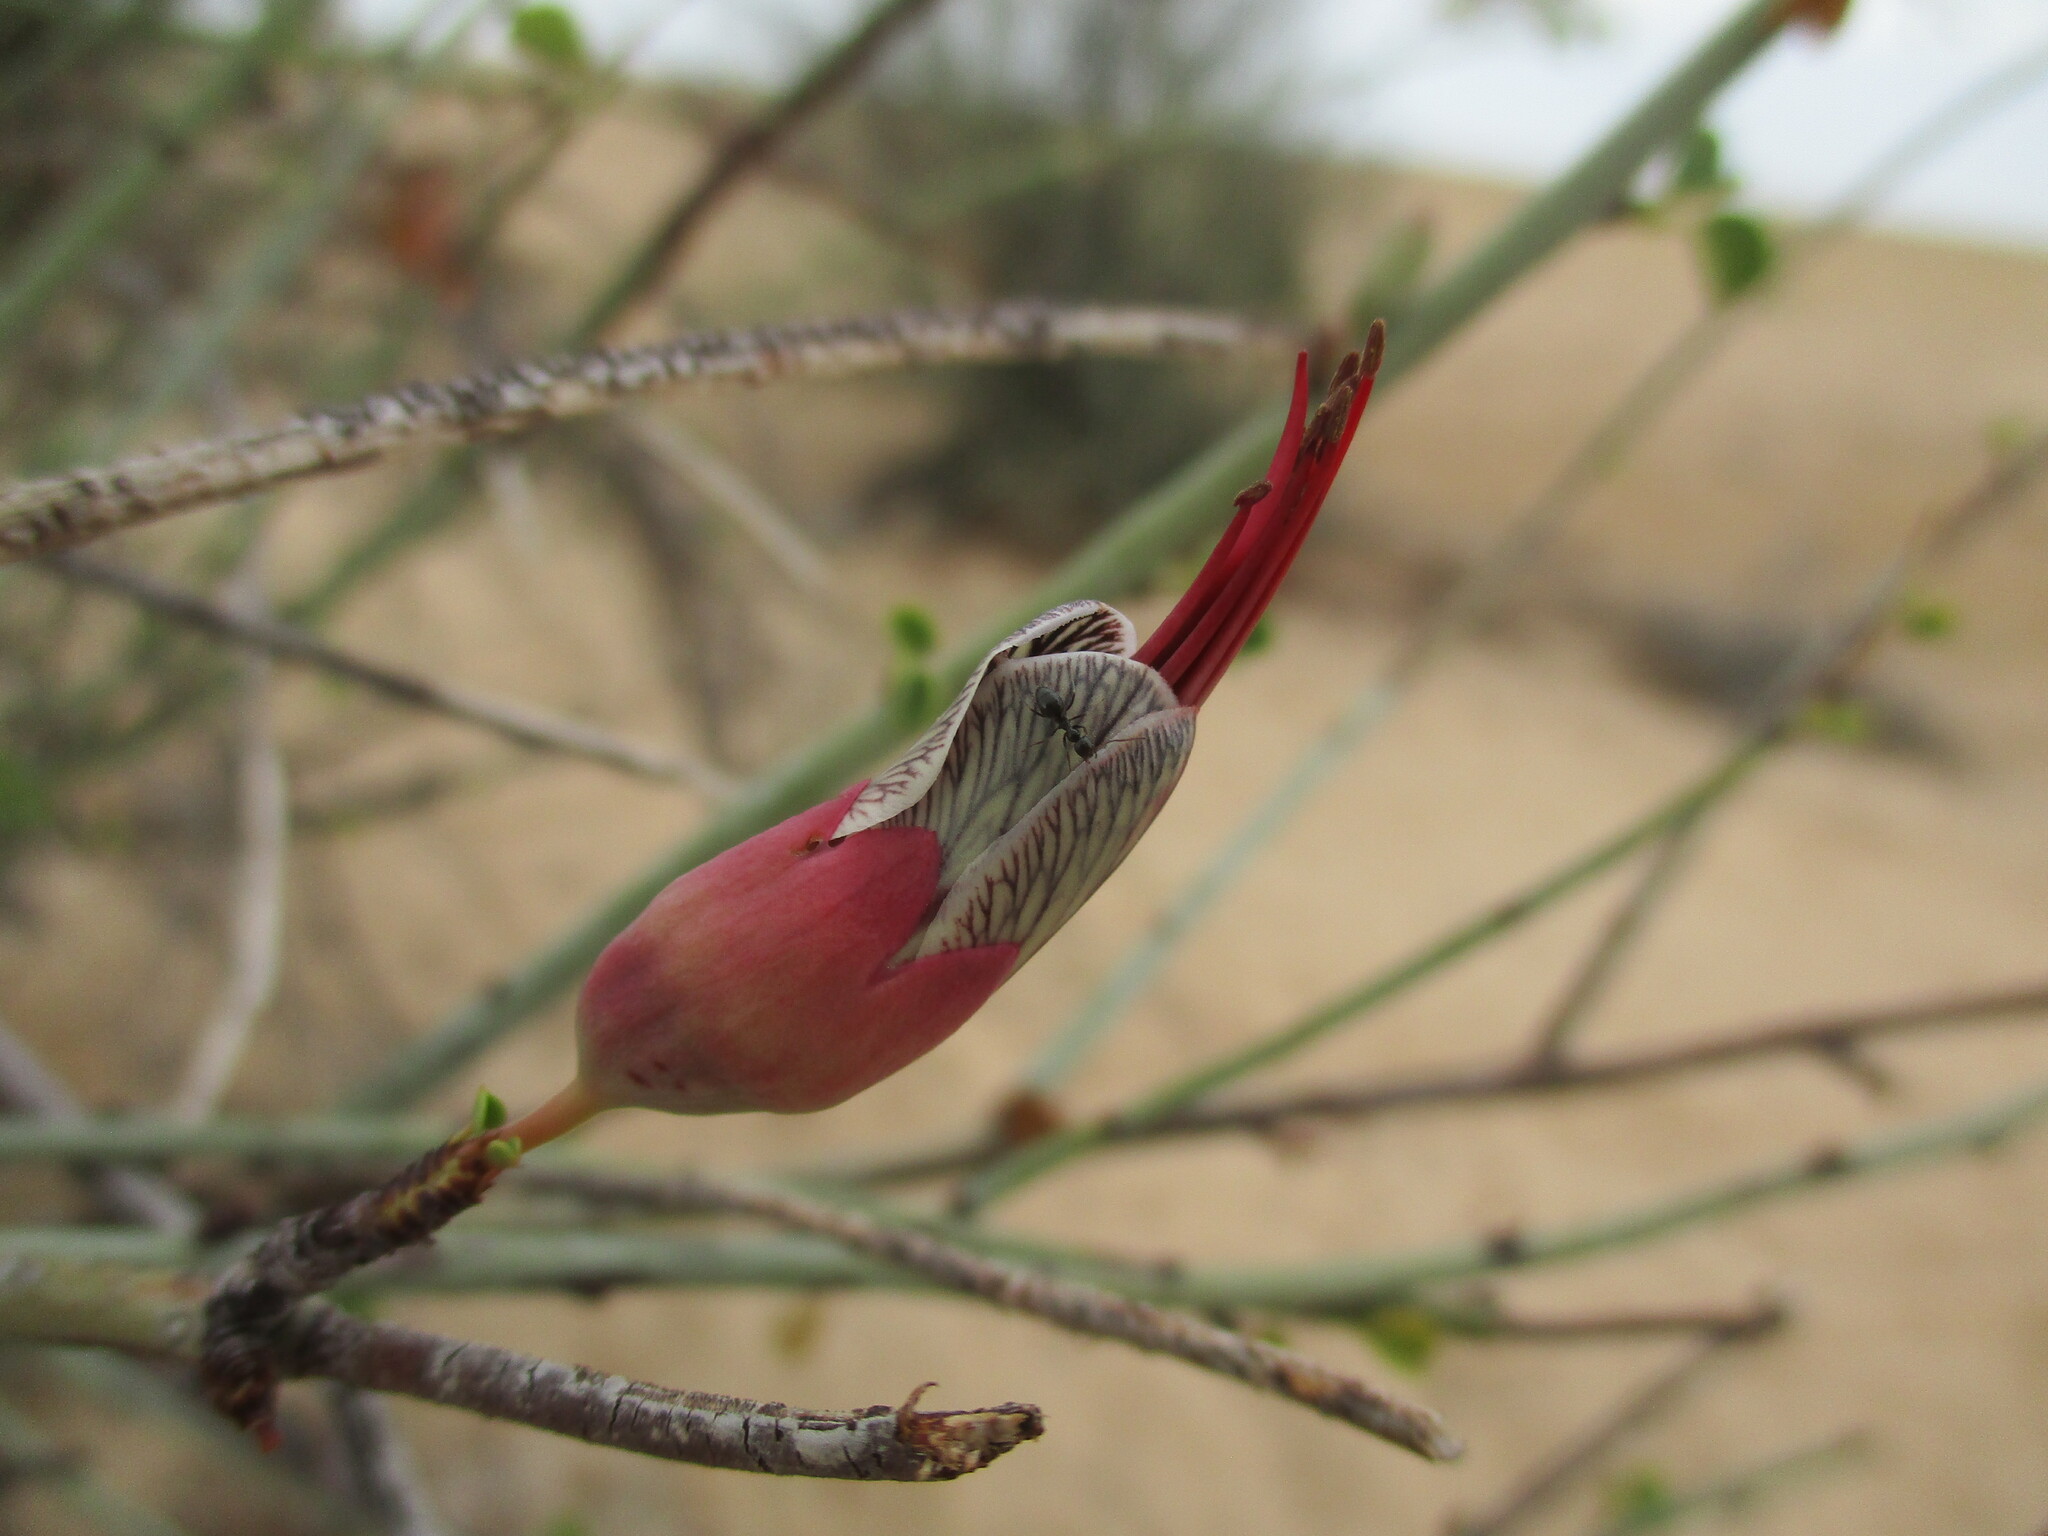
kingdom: Plantae
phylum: Tracheophyta
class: Magnoliopsida
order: Fabales
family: Fabaceae
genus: Adenolobus
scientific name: Adenolobus garipensis
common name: Butterfly-leaf
